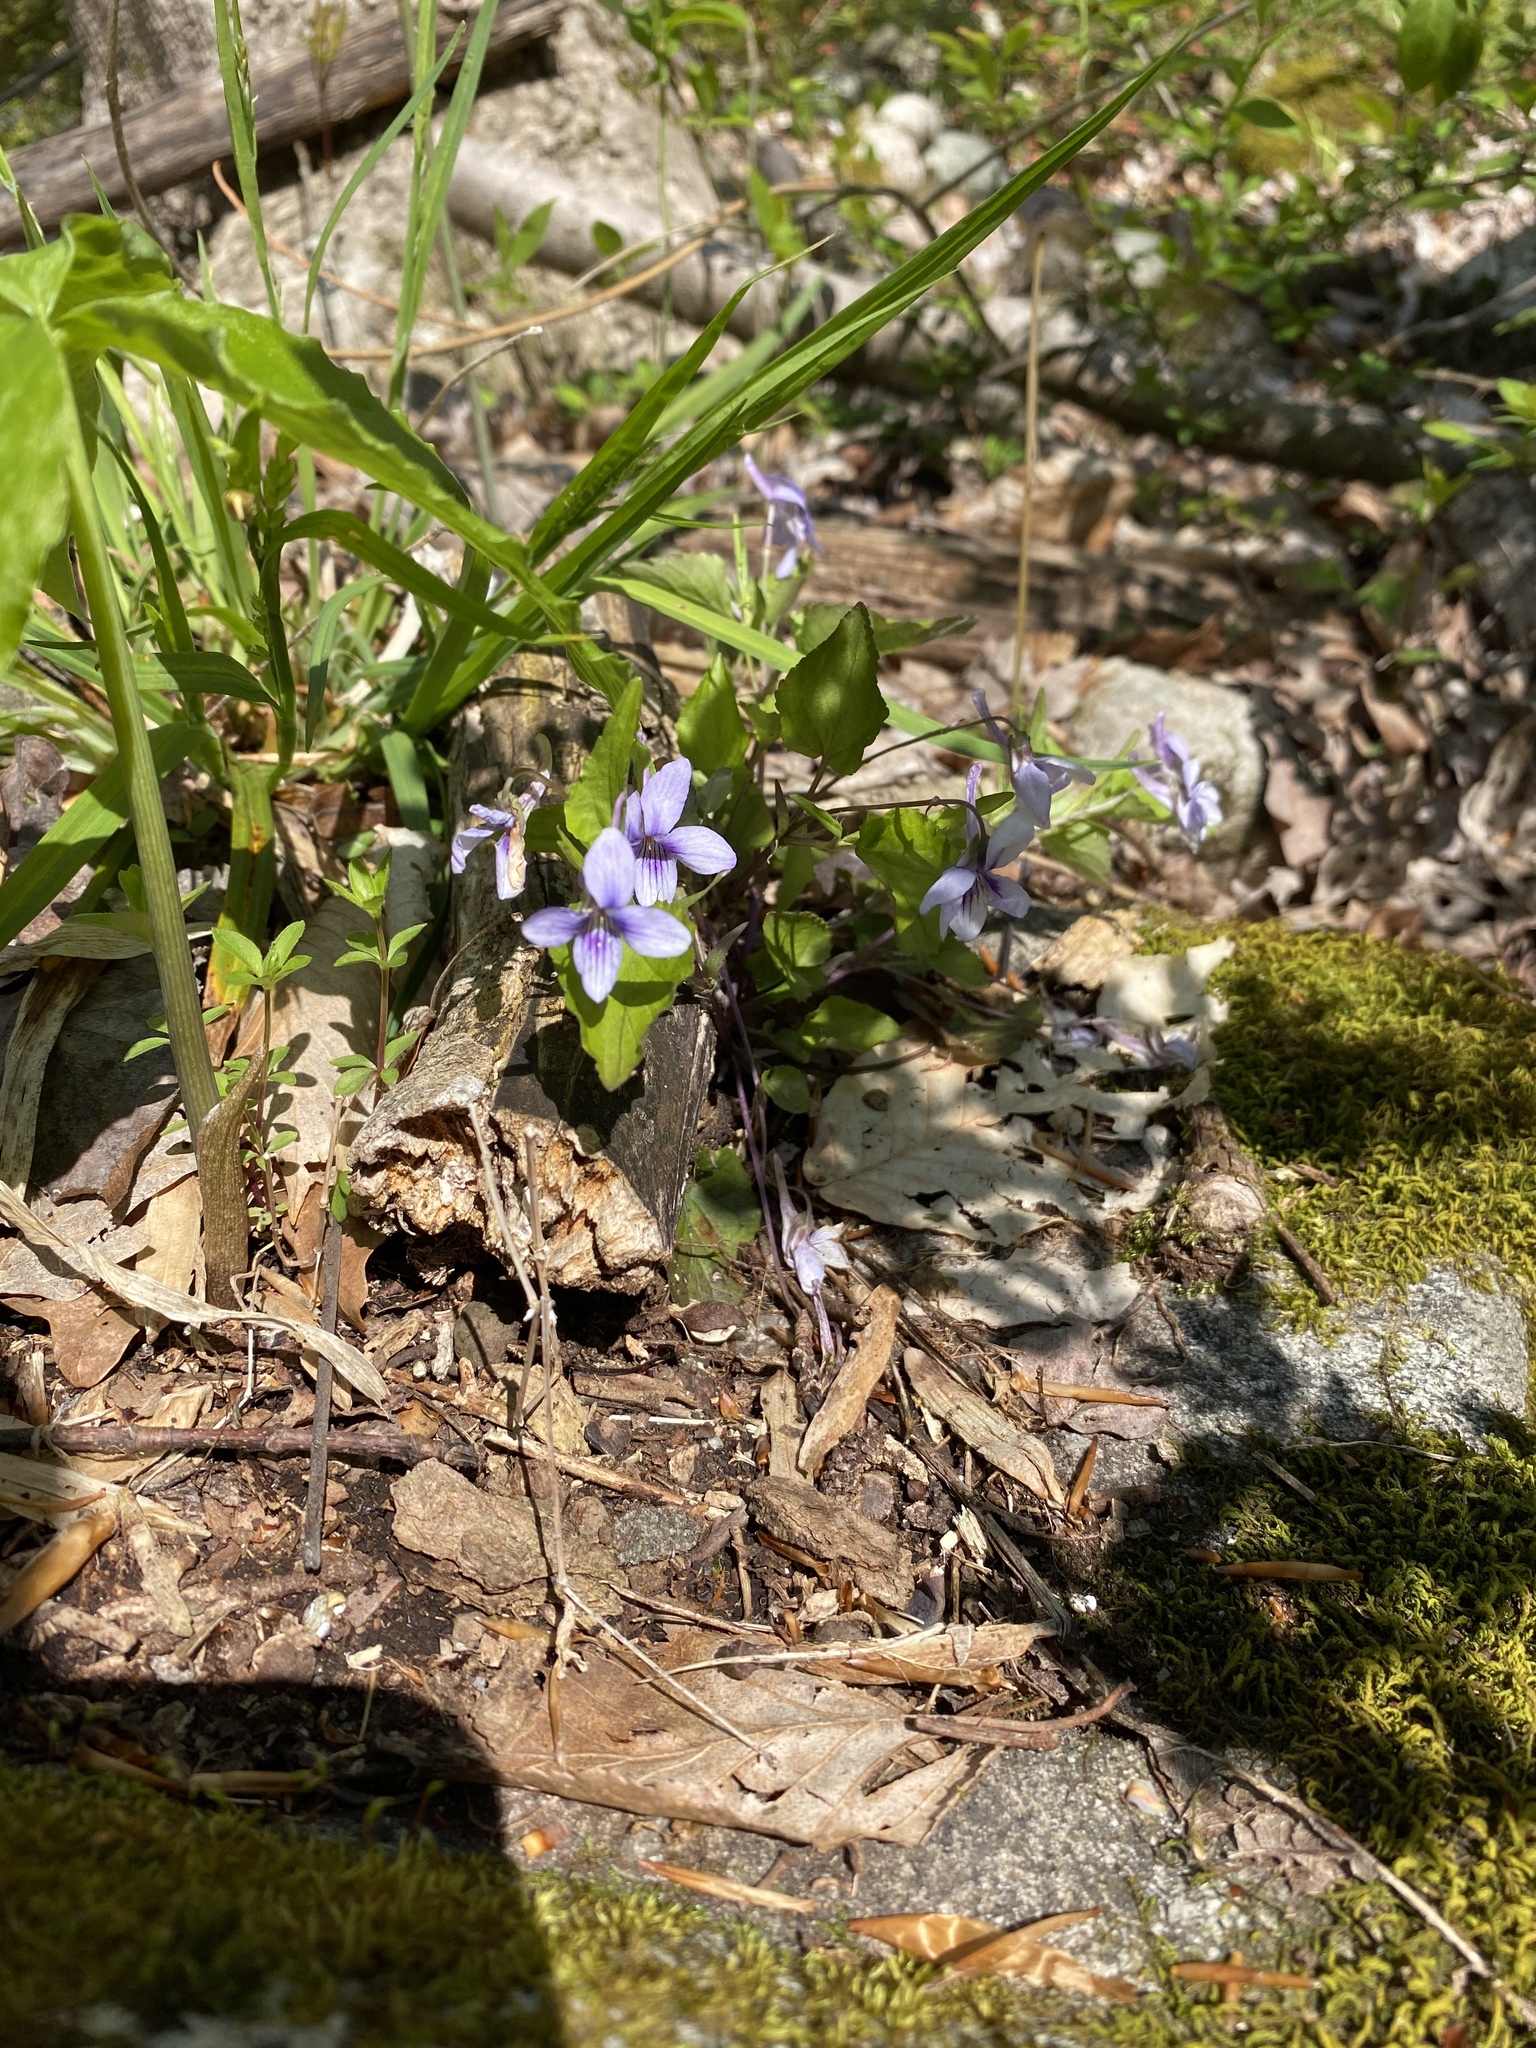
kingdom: Plantae
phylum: Tracheophyta
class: Magnoliopsida
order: Malpighiales
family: Violaceae
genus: Viola
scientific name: Viola rostrata
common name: Long-spur violet
